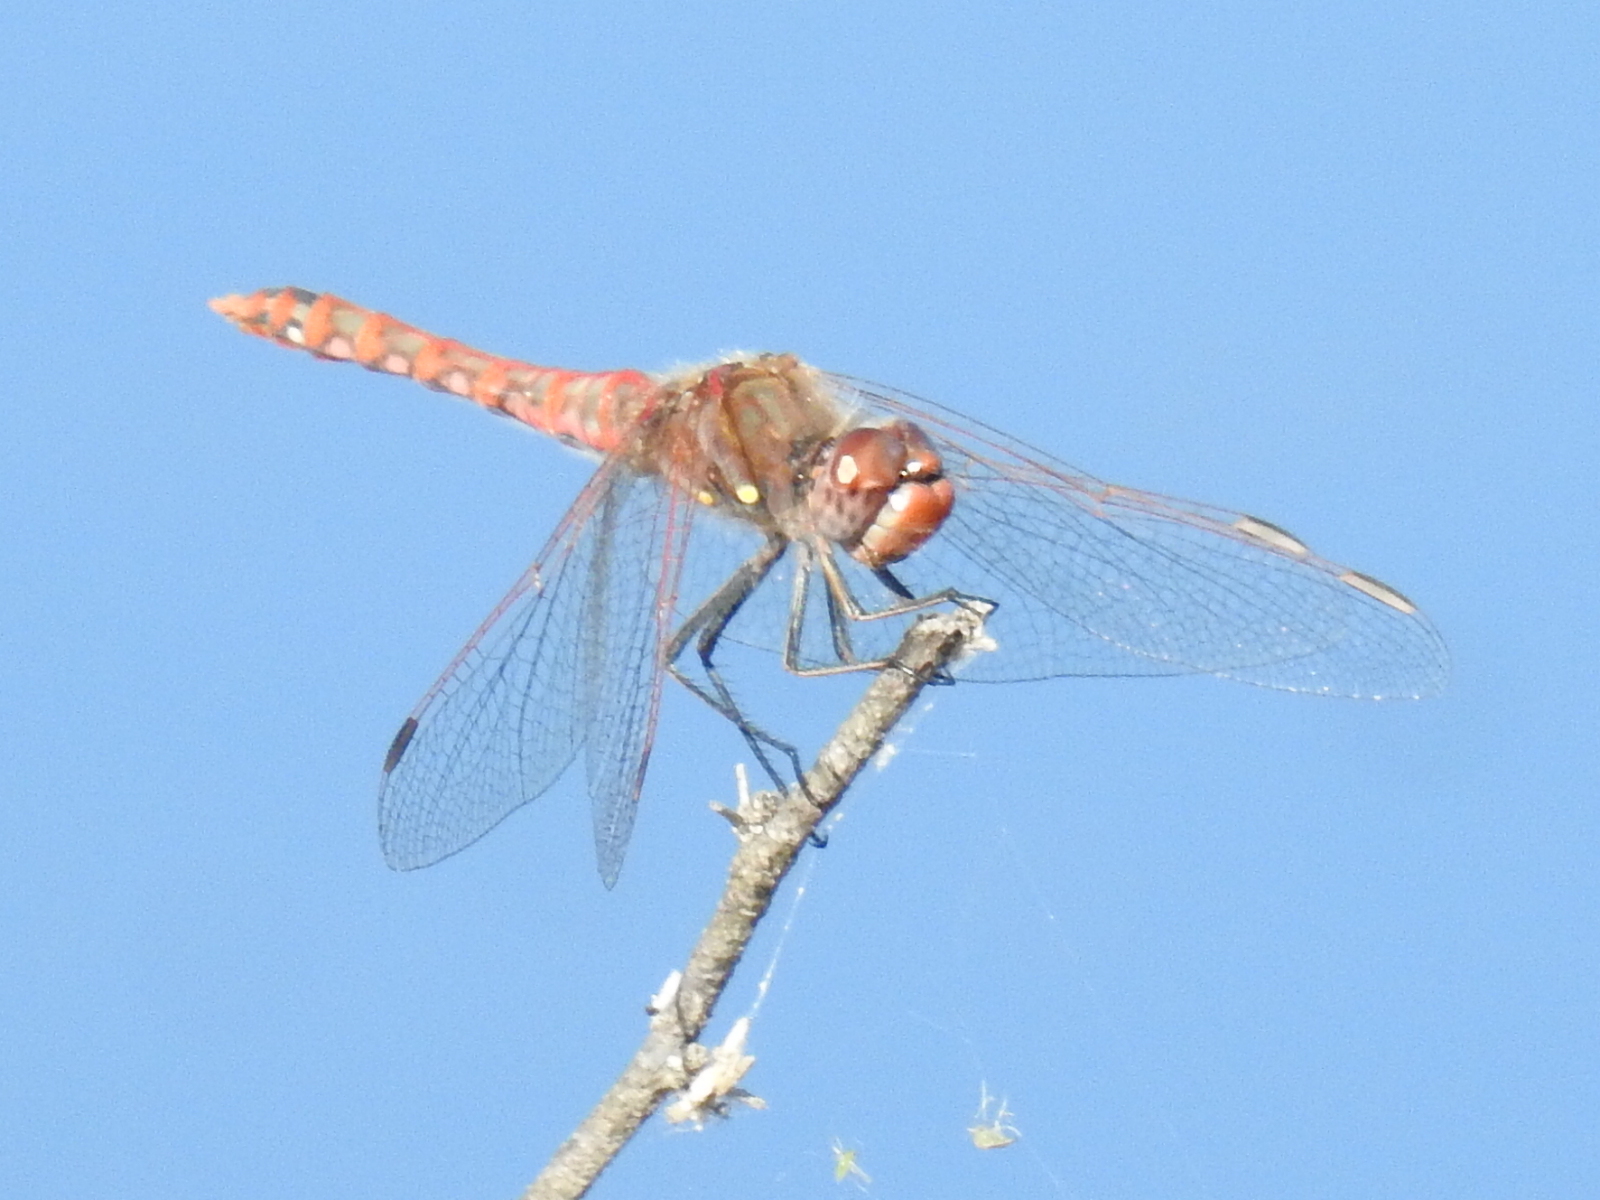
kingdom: Animalia
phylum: Arthropoda
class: Insecta
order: Odonata
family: Libellulidae
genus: Sympetrum
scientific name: Sympetrum corruptum
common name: Variegated meadowhawk
